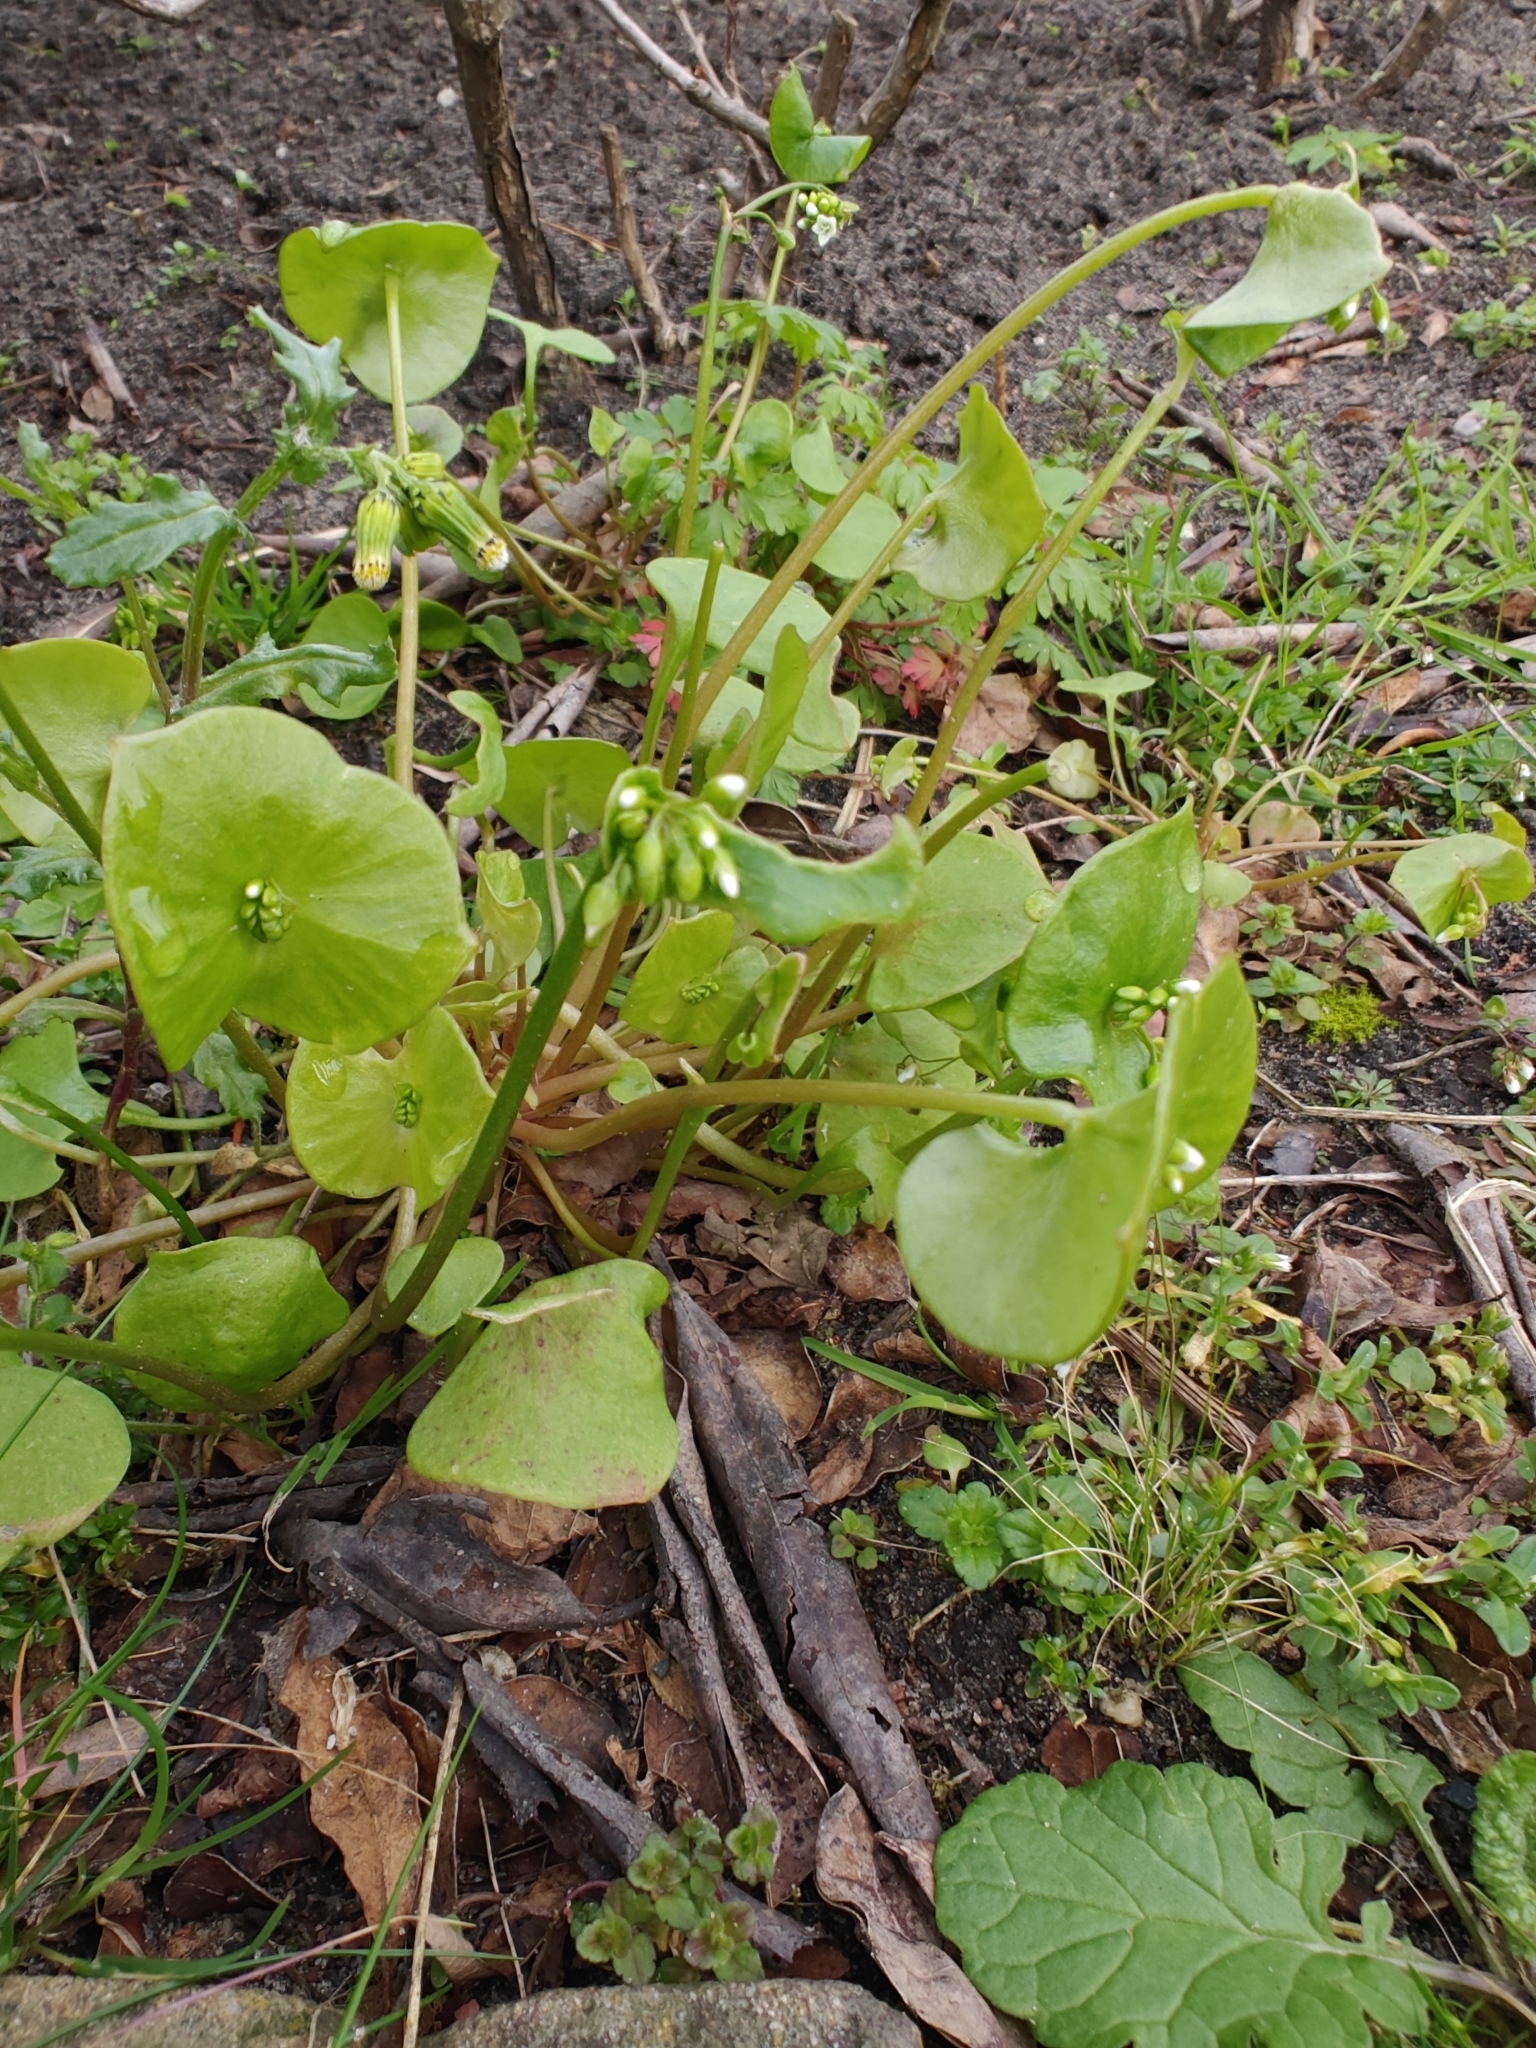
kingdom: Plantae
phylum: Tracheophyta
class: Magnoliopsida
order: Caryophyllales
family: Montiaceae
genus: Claytonia
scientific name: Claytonia perfoliata
